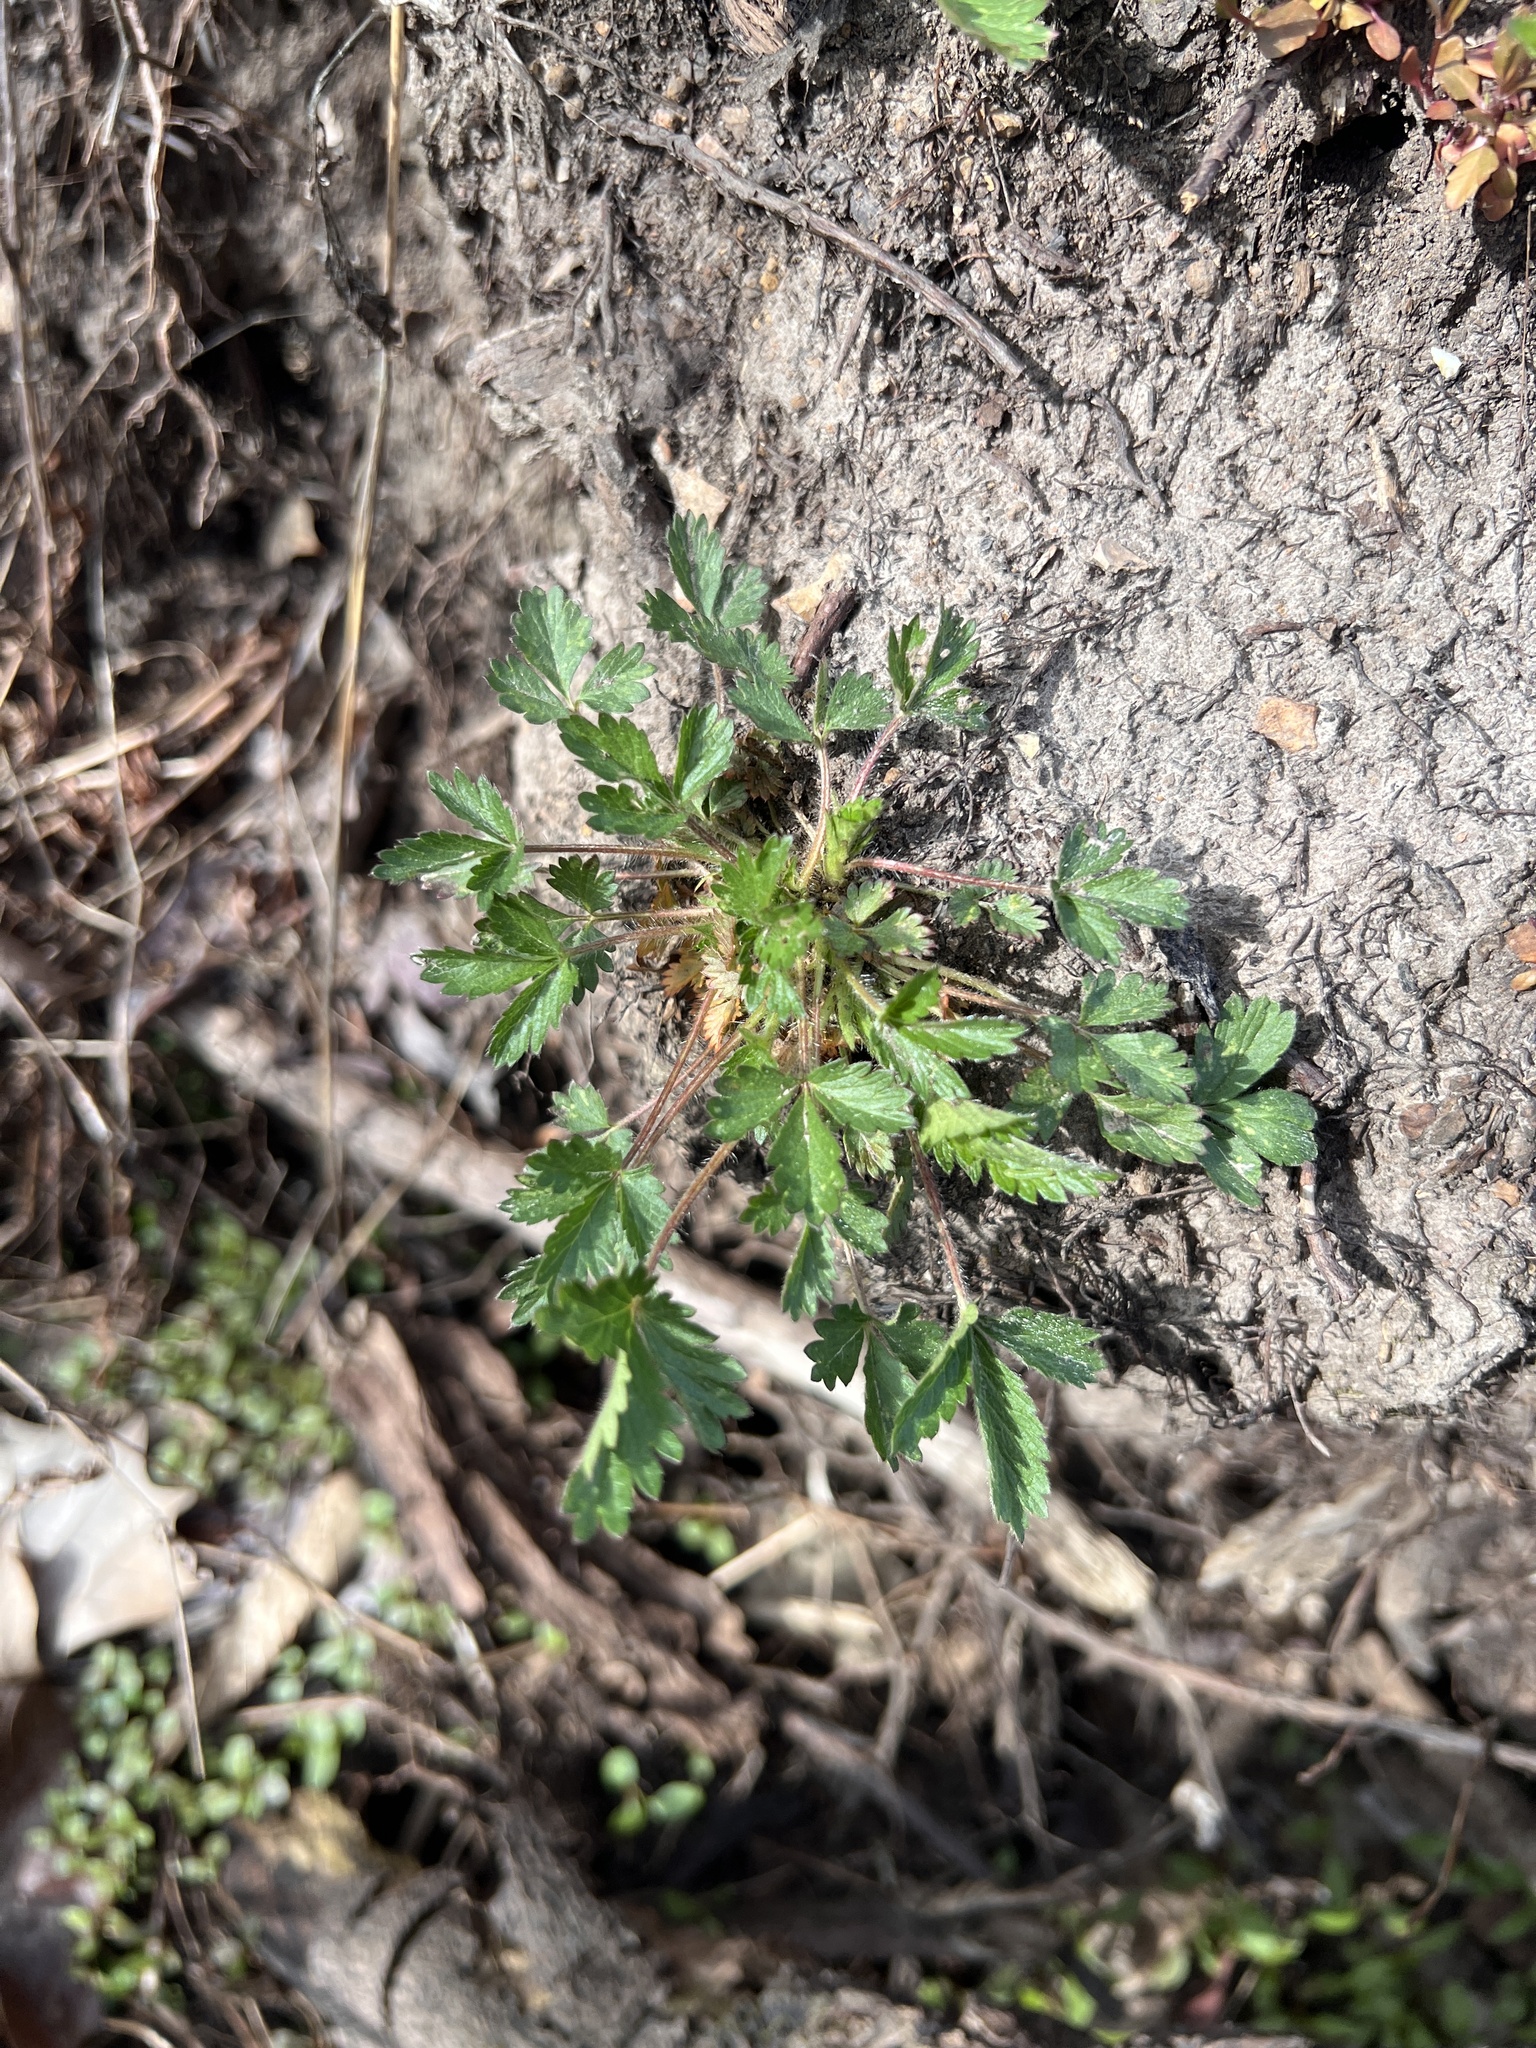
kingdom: Plantae
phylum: Tracheophyta
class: Magnoliopsida
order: Rosales
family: Rosaceae
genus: Potentilla
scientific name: Potentilla norvegica
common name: Ternate-leaved cinquefoil
